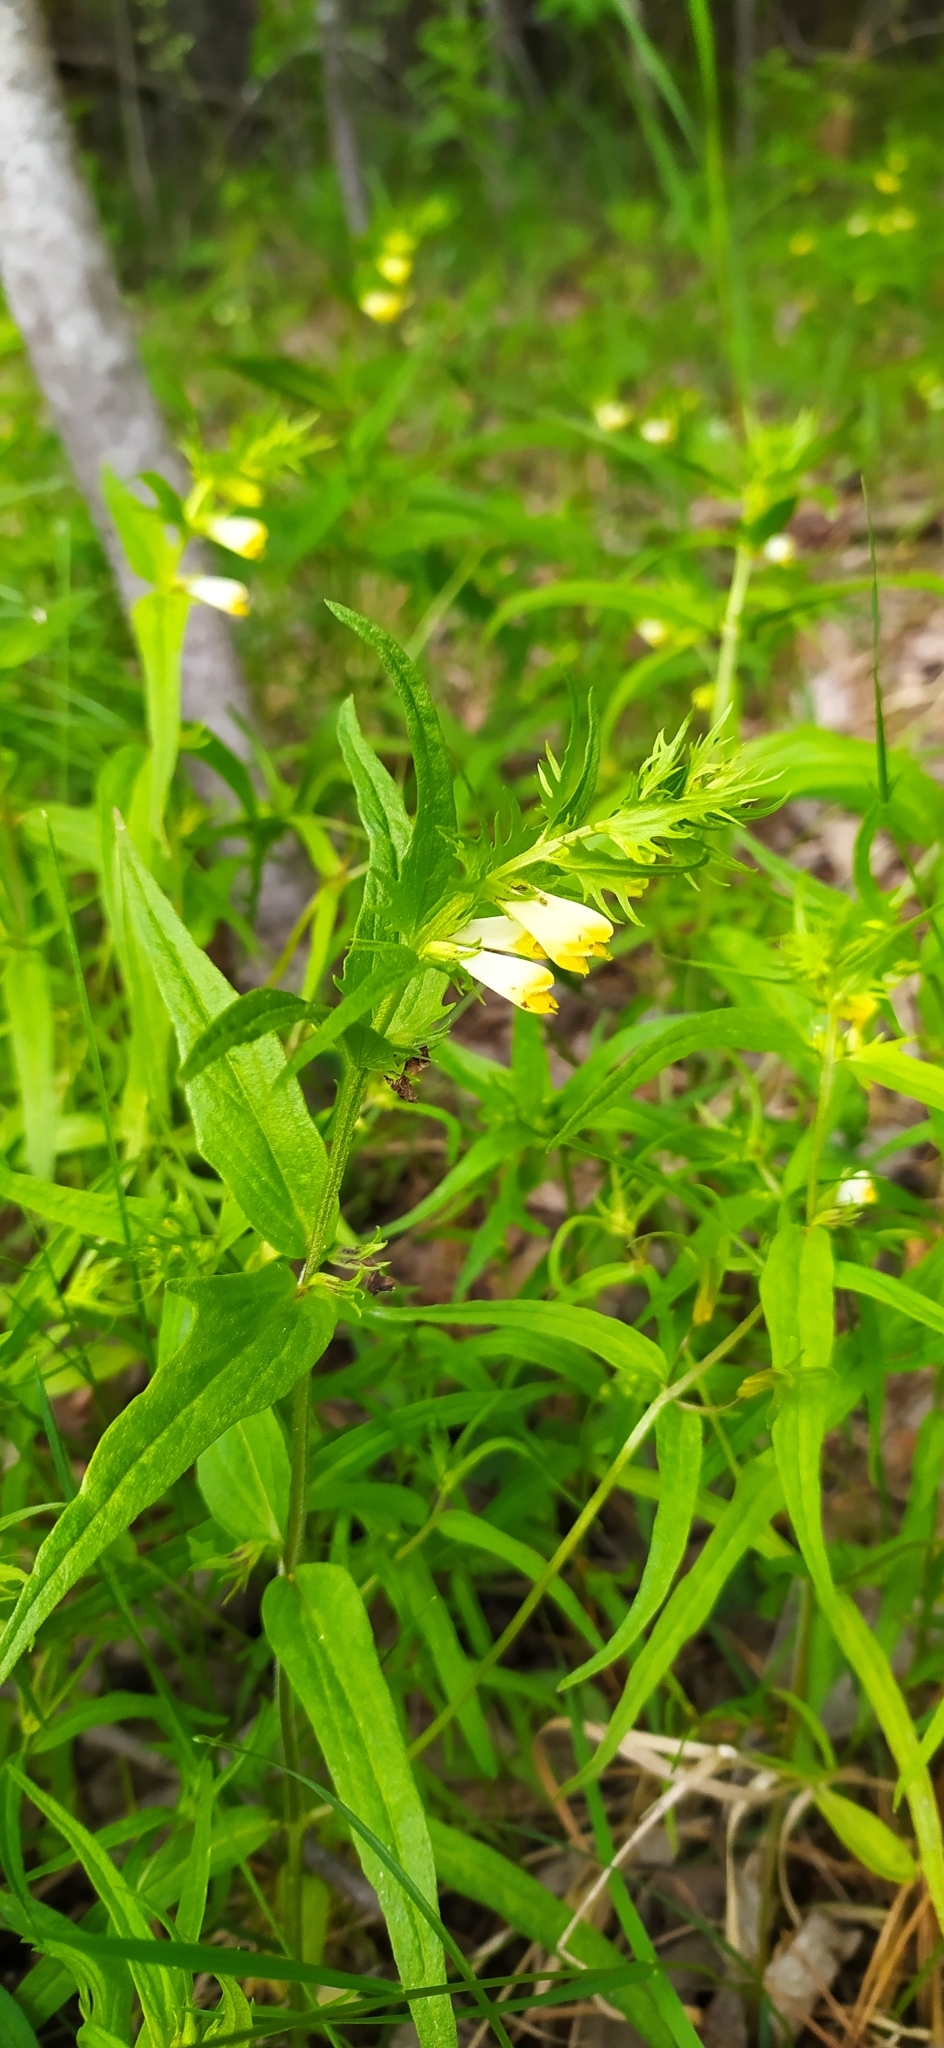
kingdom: Plantae
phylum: Tracheophyta
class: Magnoliopsida
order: Lamiales
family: Orobanchaceae
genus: Melampyrum
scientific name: Melampyrum pratense
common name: Common cow-wheat
